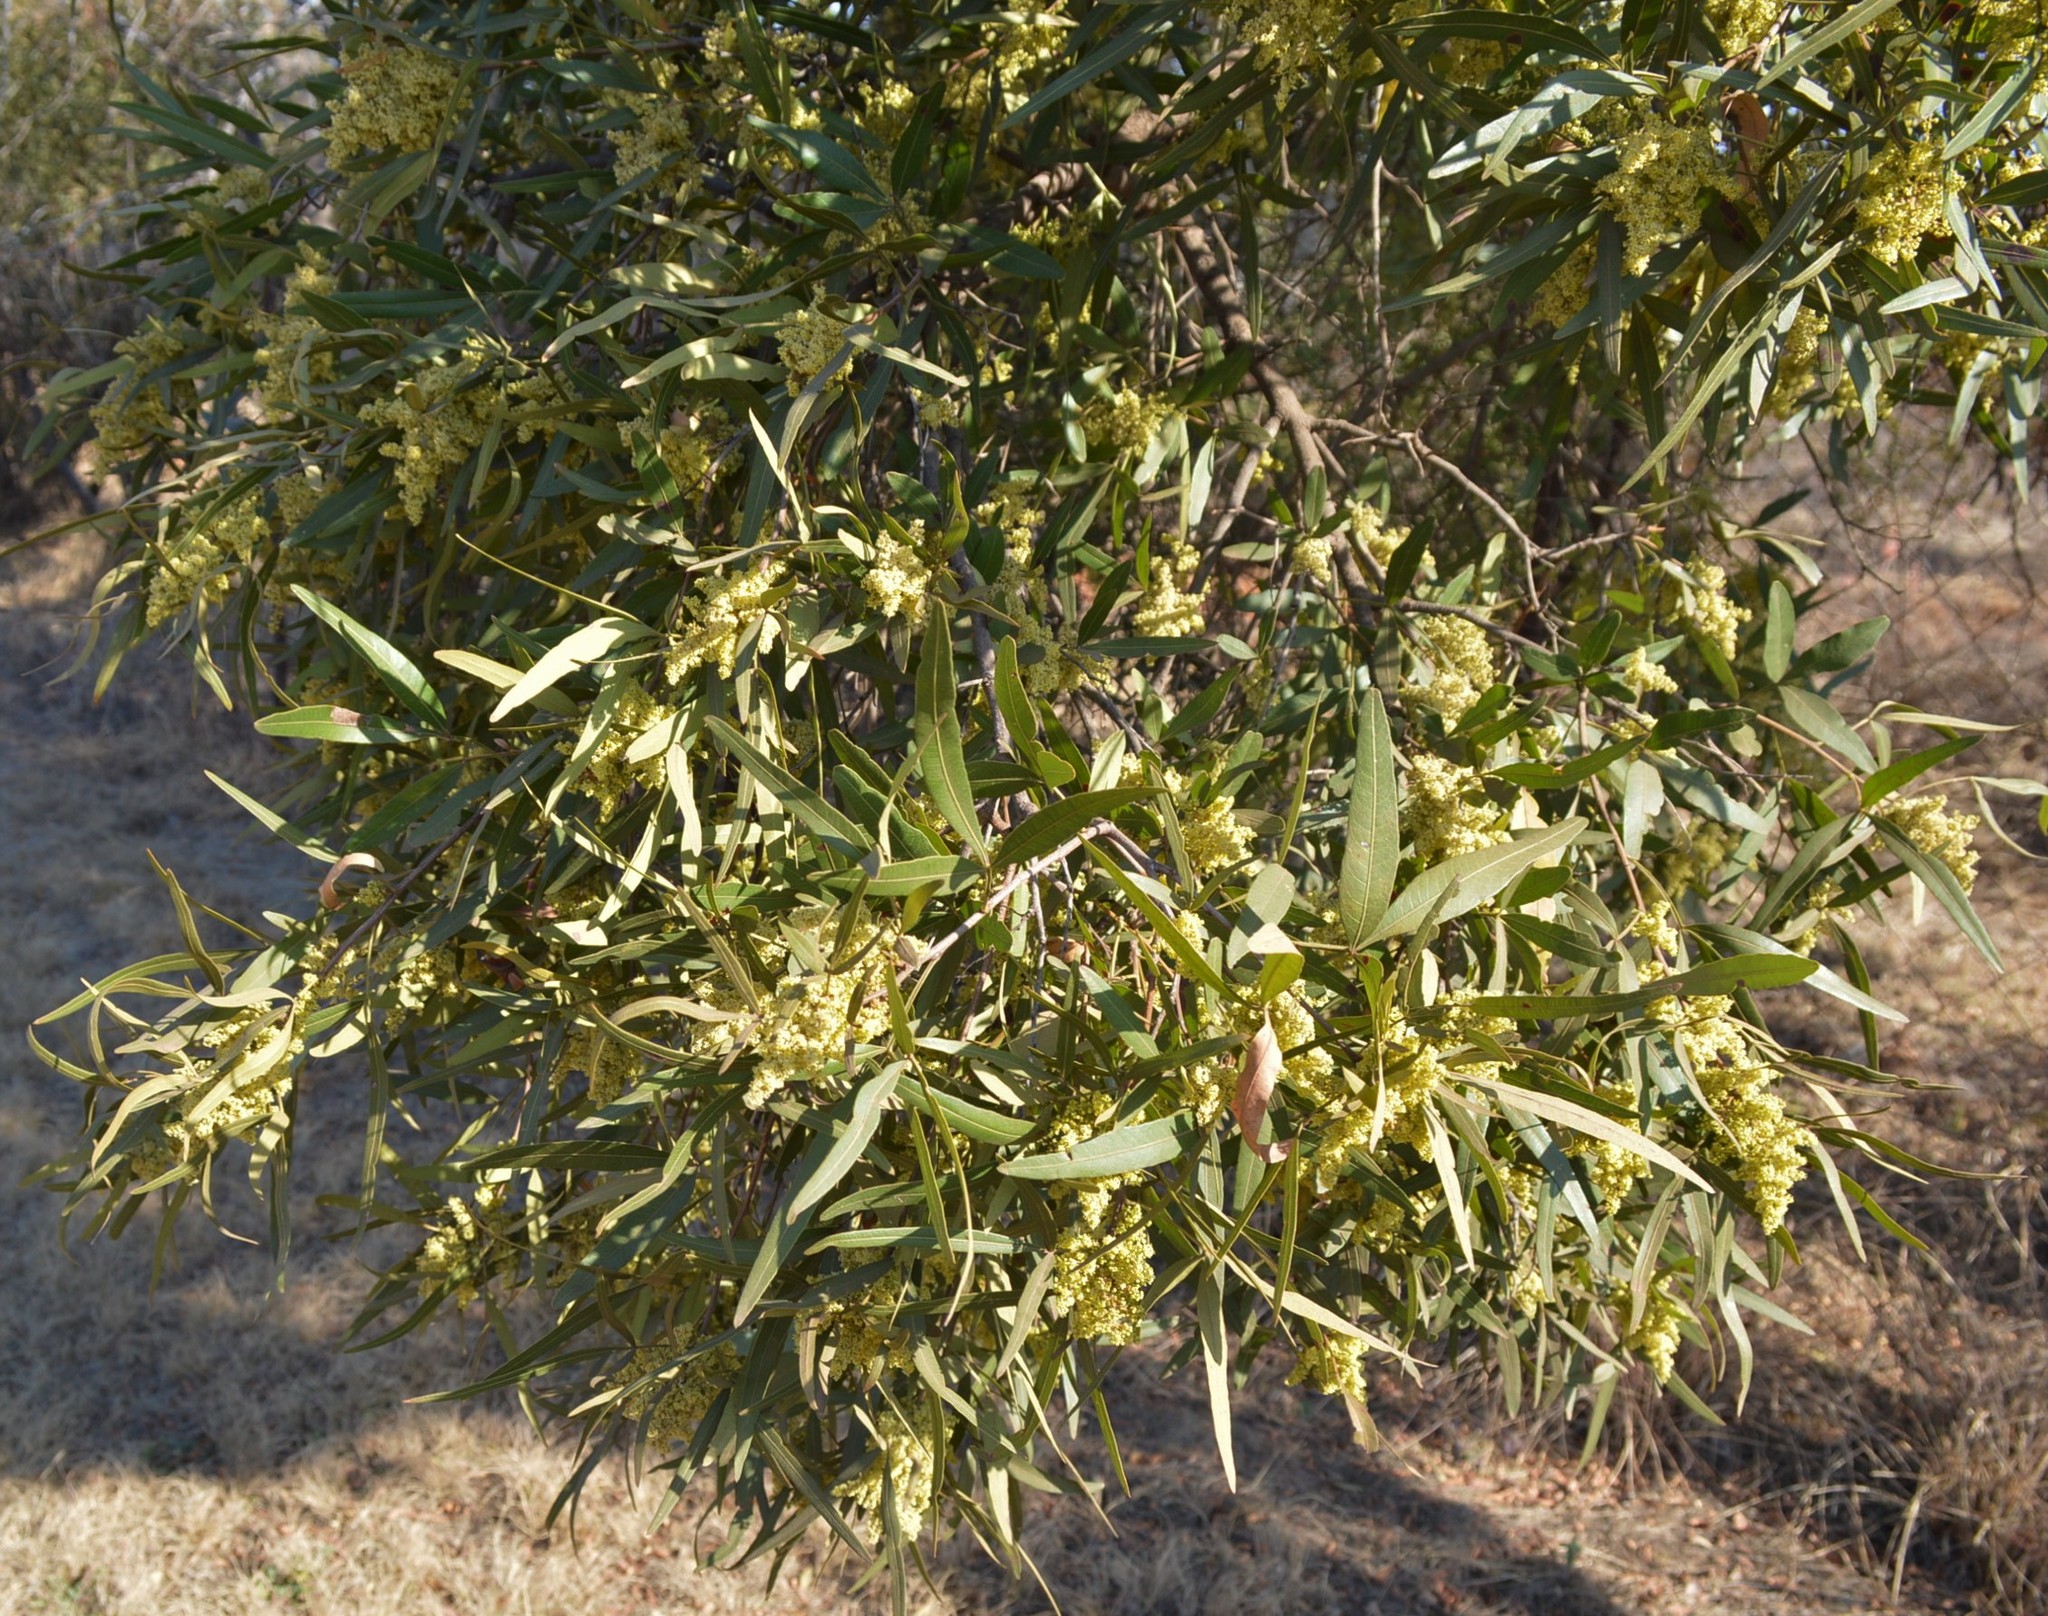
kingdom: Plantae
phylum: Tracheophyta
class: Magnoliopsida
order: Sapindales
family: Anacardiaceae
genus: Searsia
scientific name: Searsia lancea
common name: Cashew
